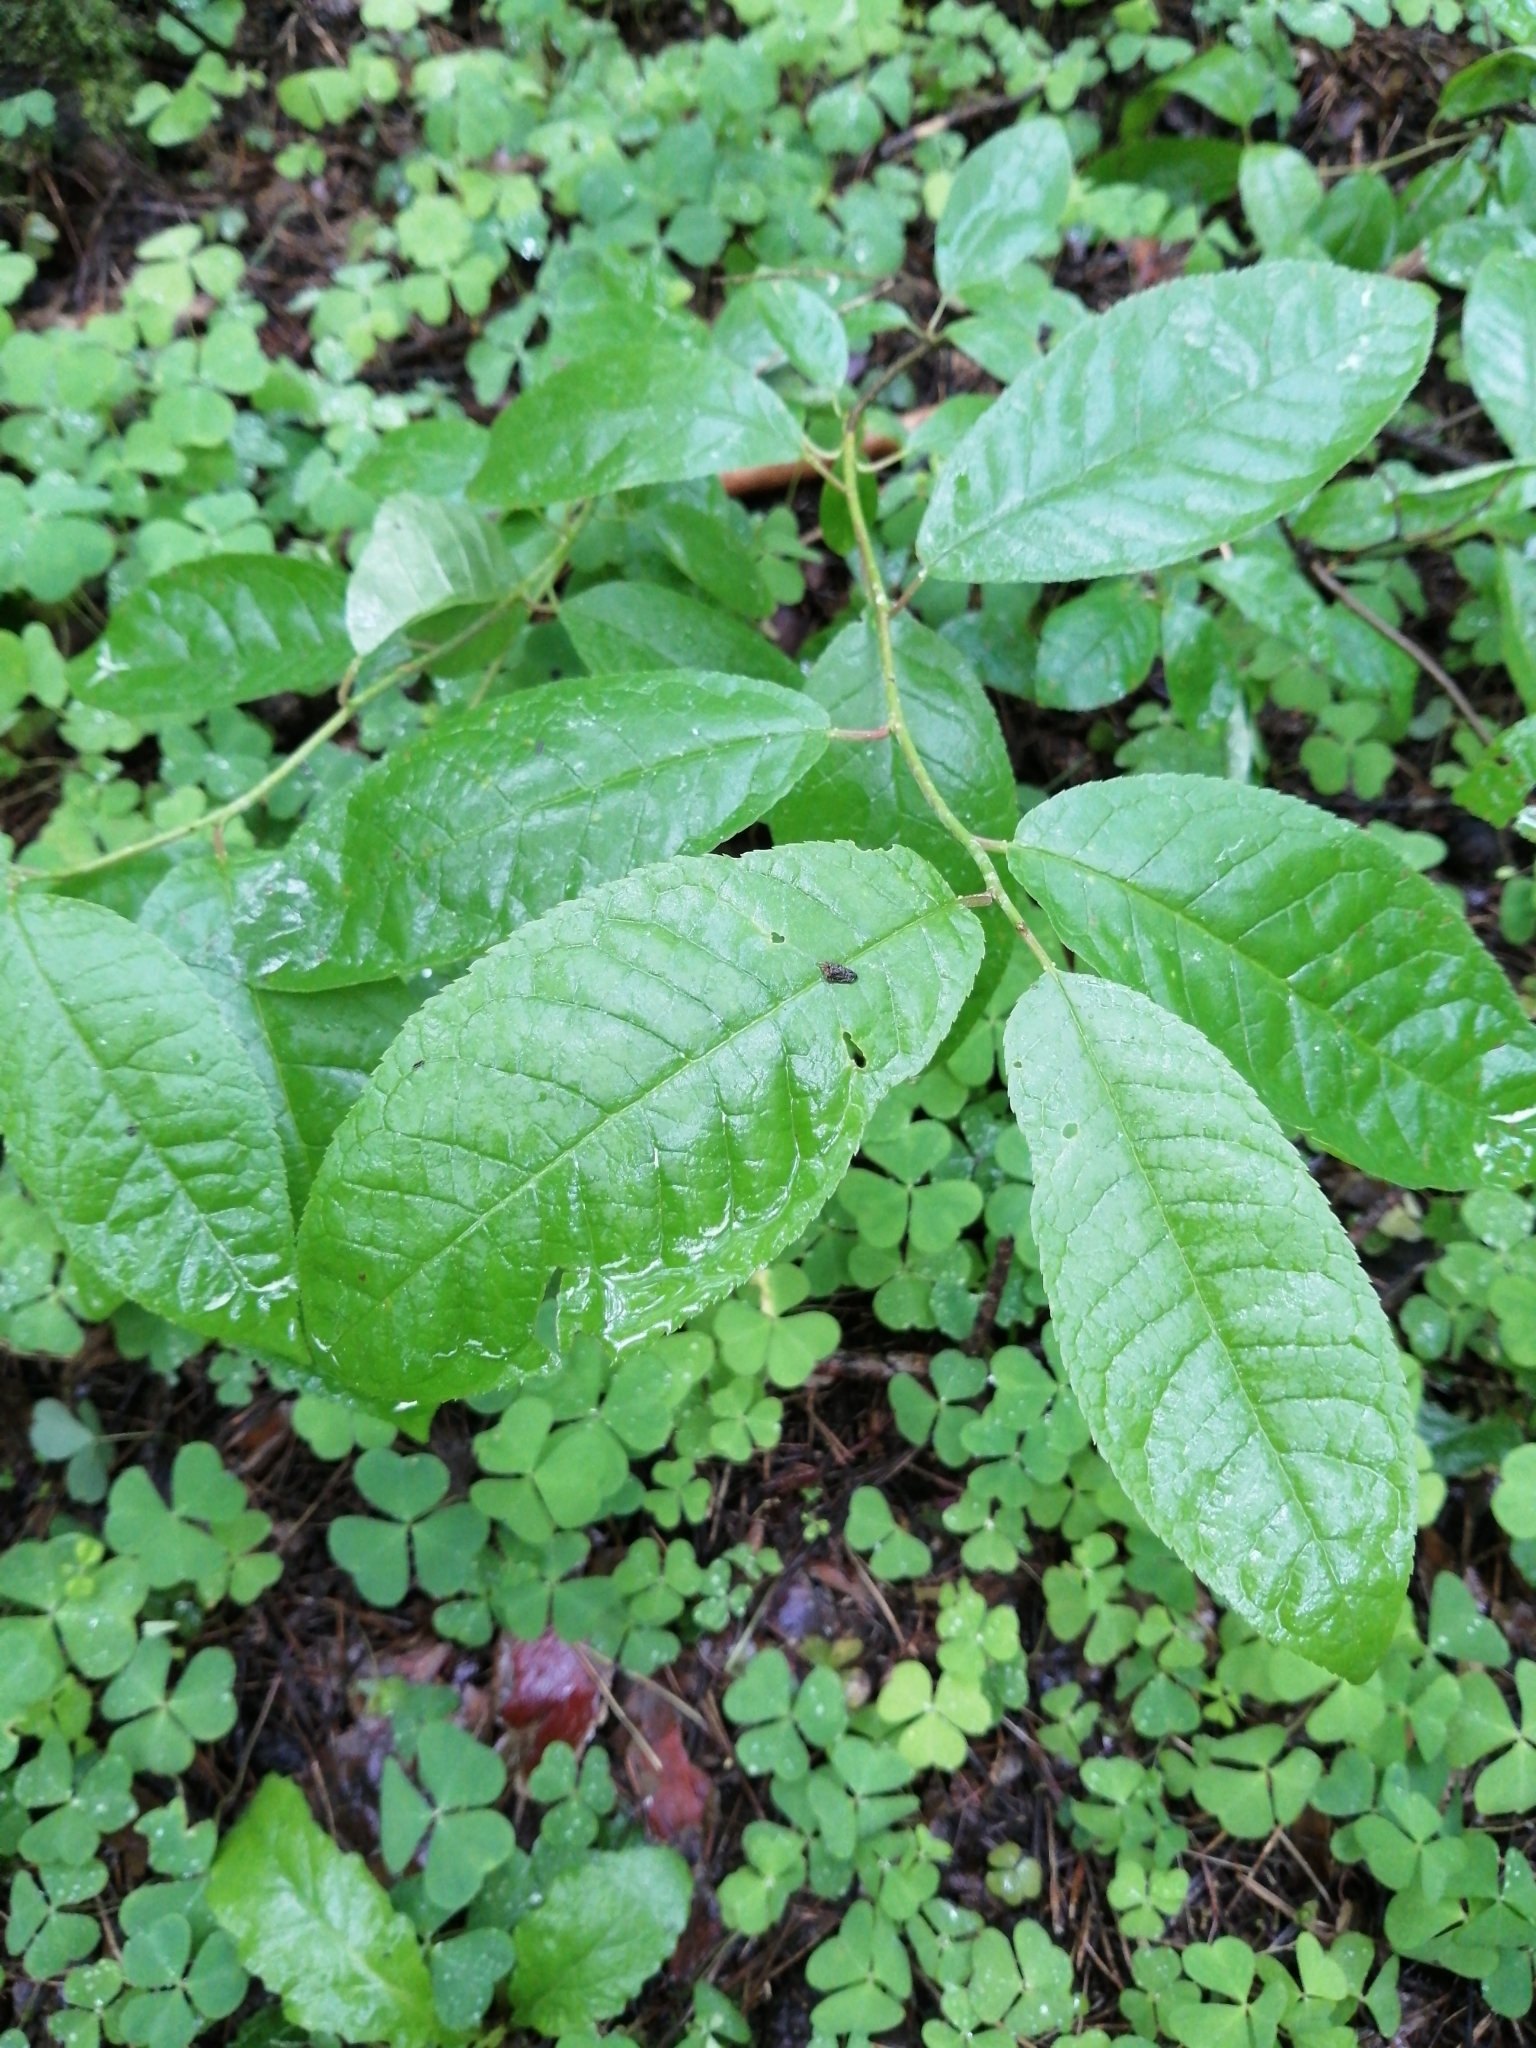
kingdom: Plantae
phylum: Tracheophyta
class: Magnoliopsida
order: Rosales
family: Rosaceae
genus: Prunus
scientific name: Prunus padus
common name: Bird cherry
